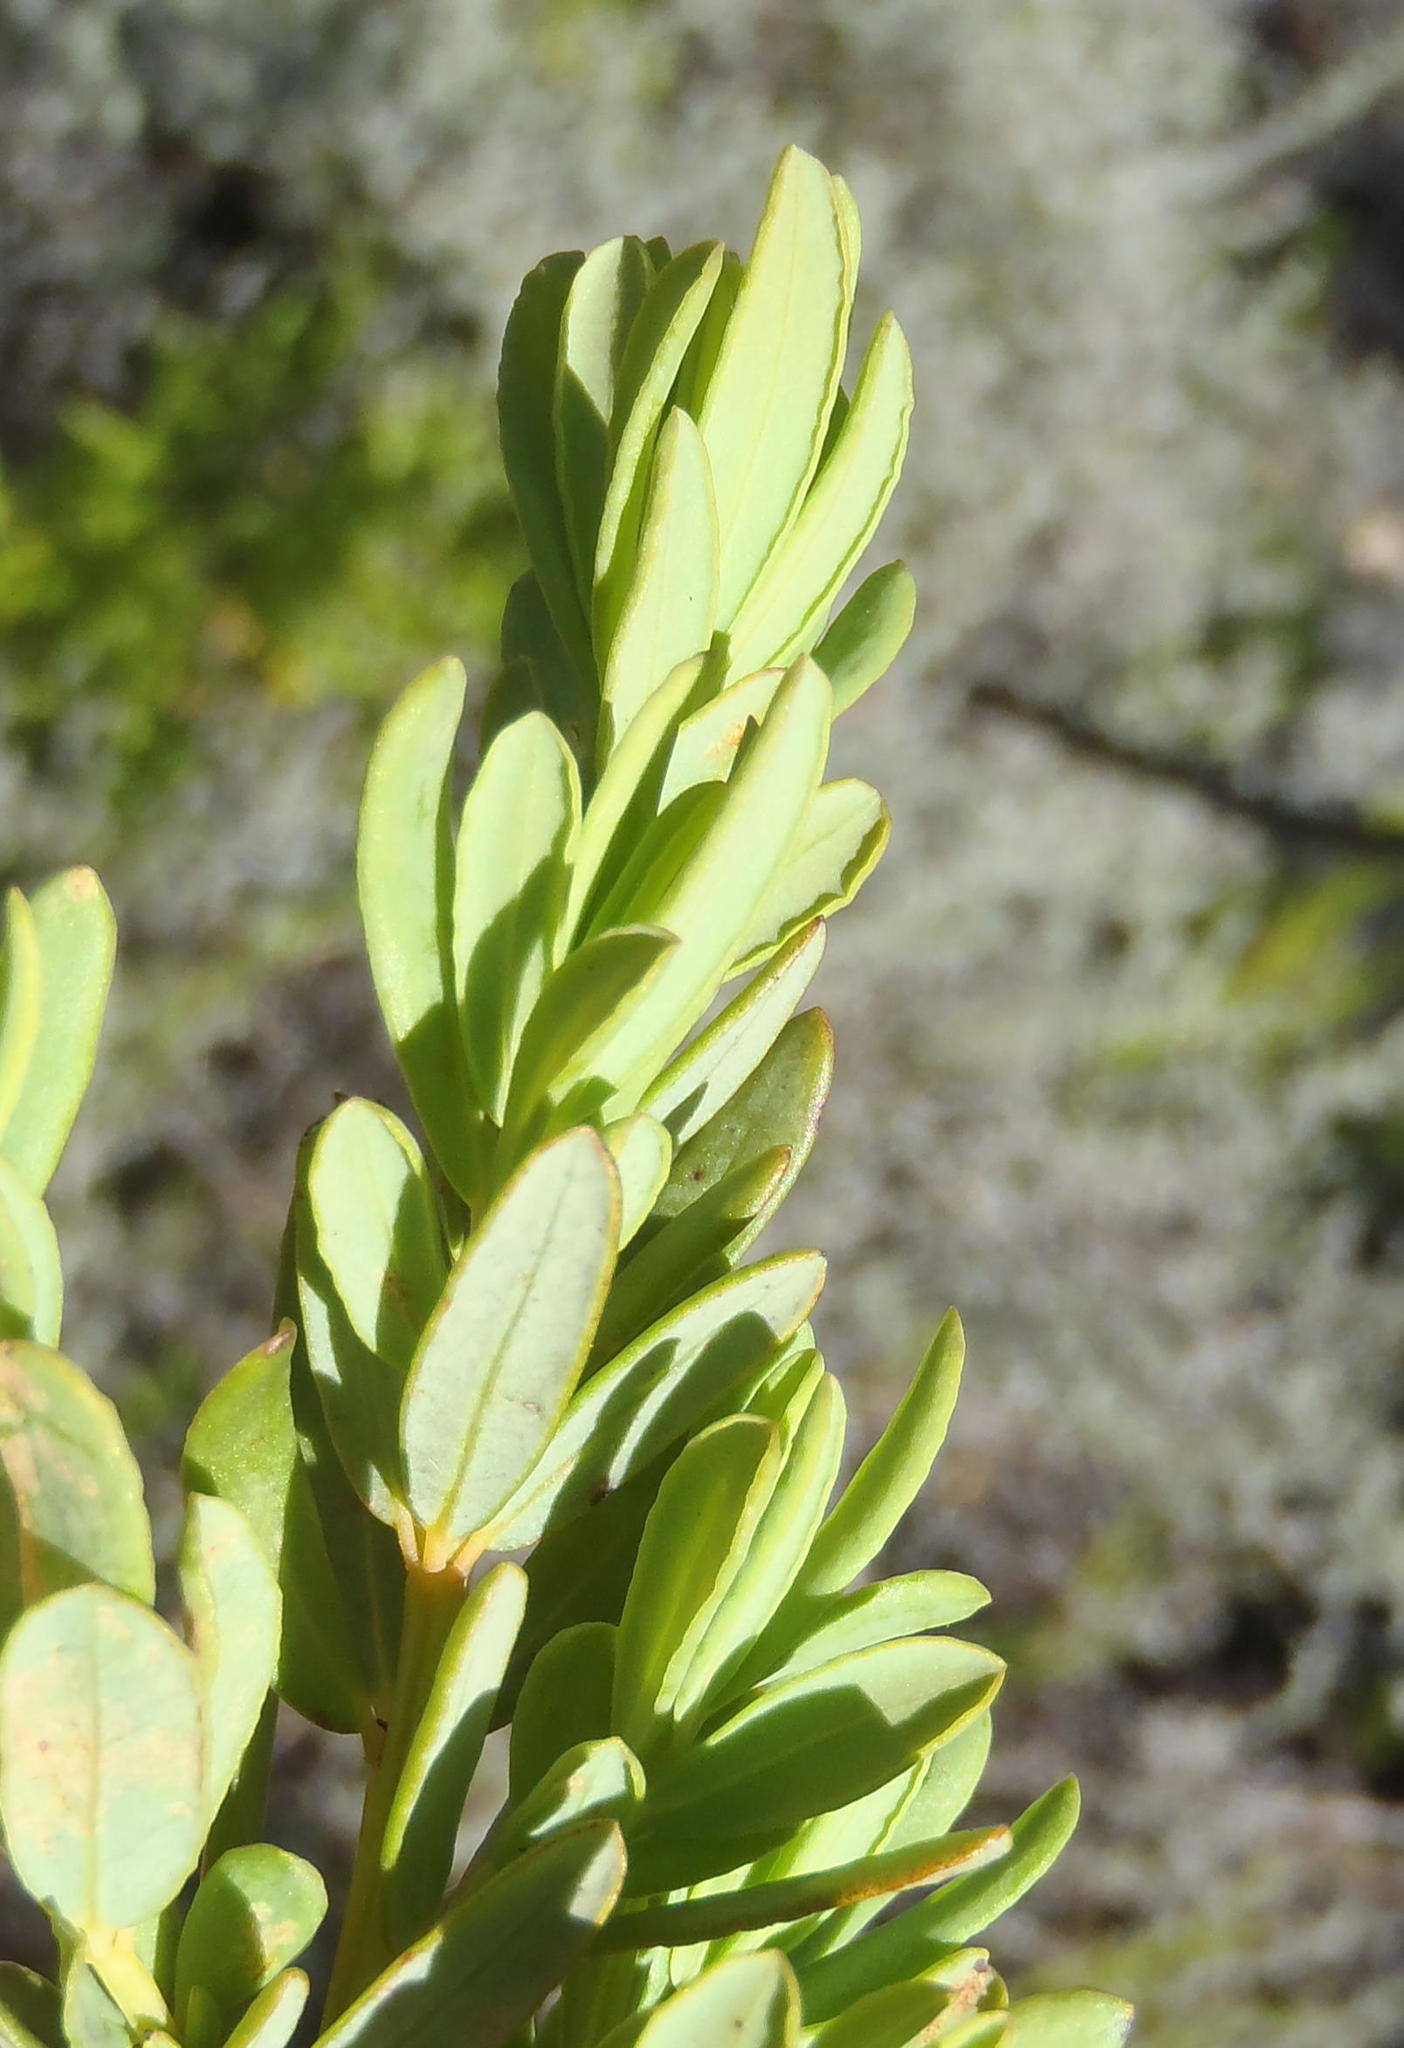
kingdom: Plantae
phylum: Tracheophyta
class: Magnoliopsida
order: Fabales
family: Fabaceae
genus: Cyclopia
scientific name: Cyclopia subternata
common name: Honeybush tea
